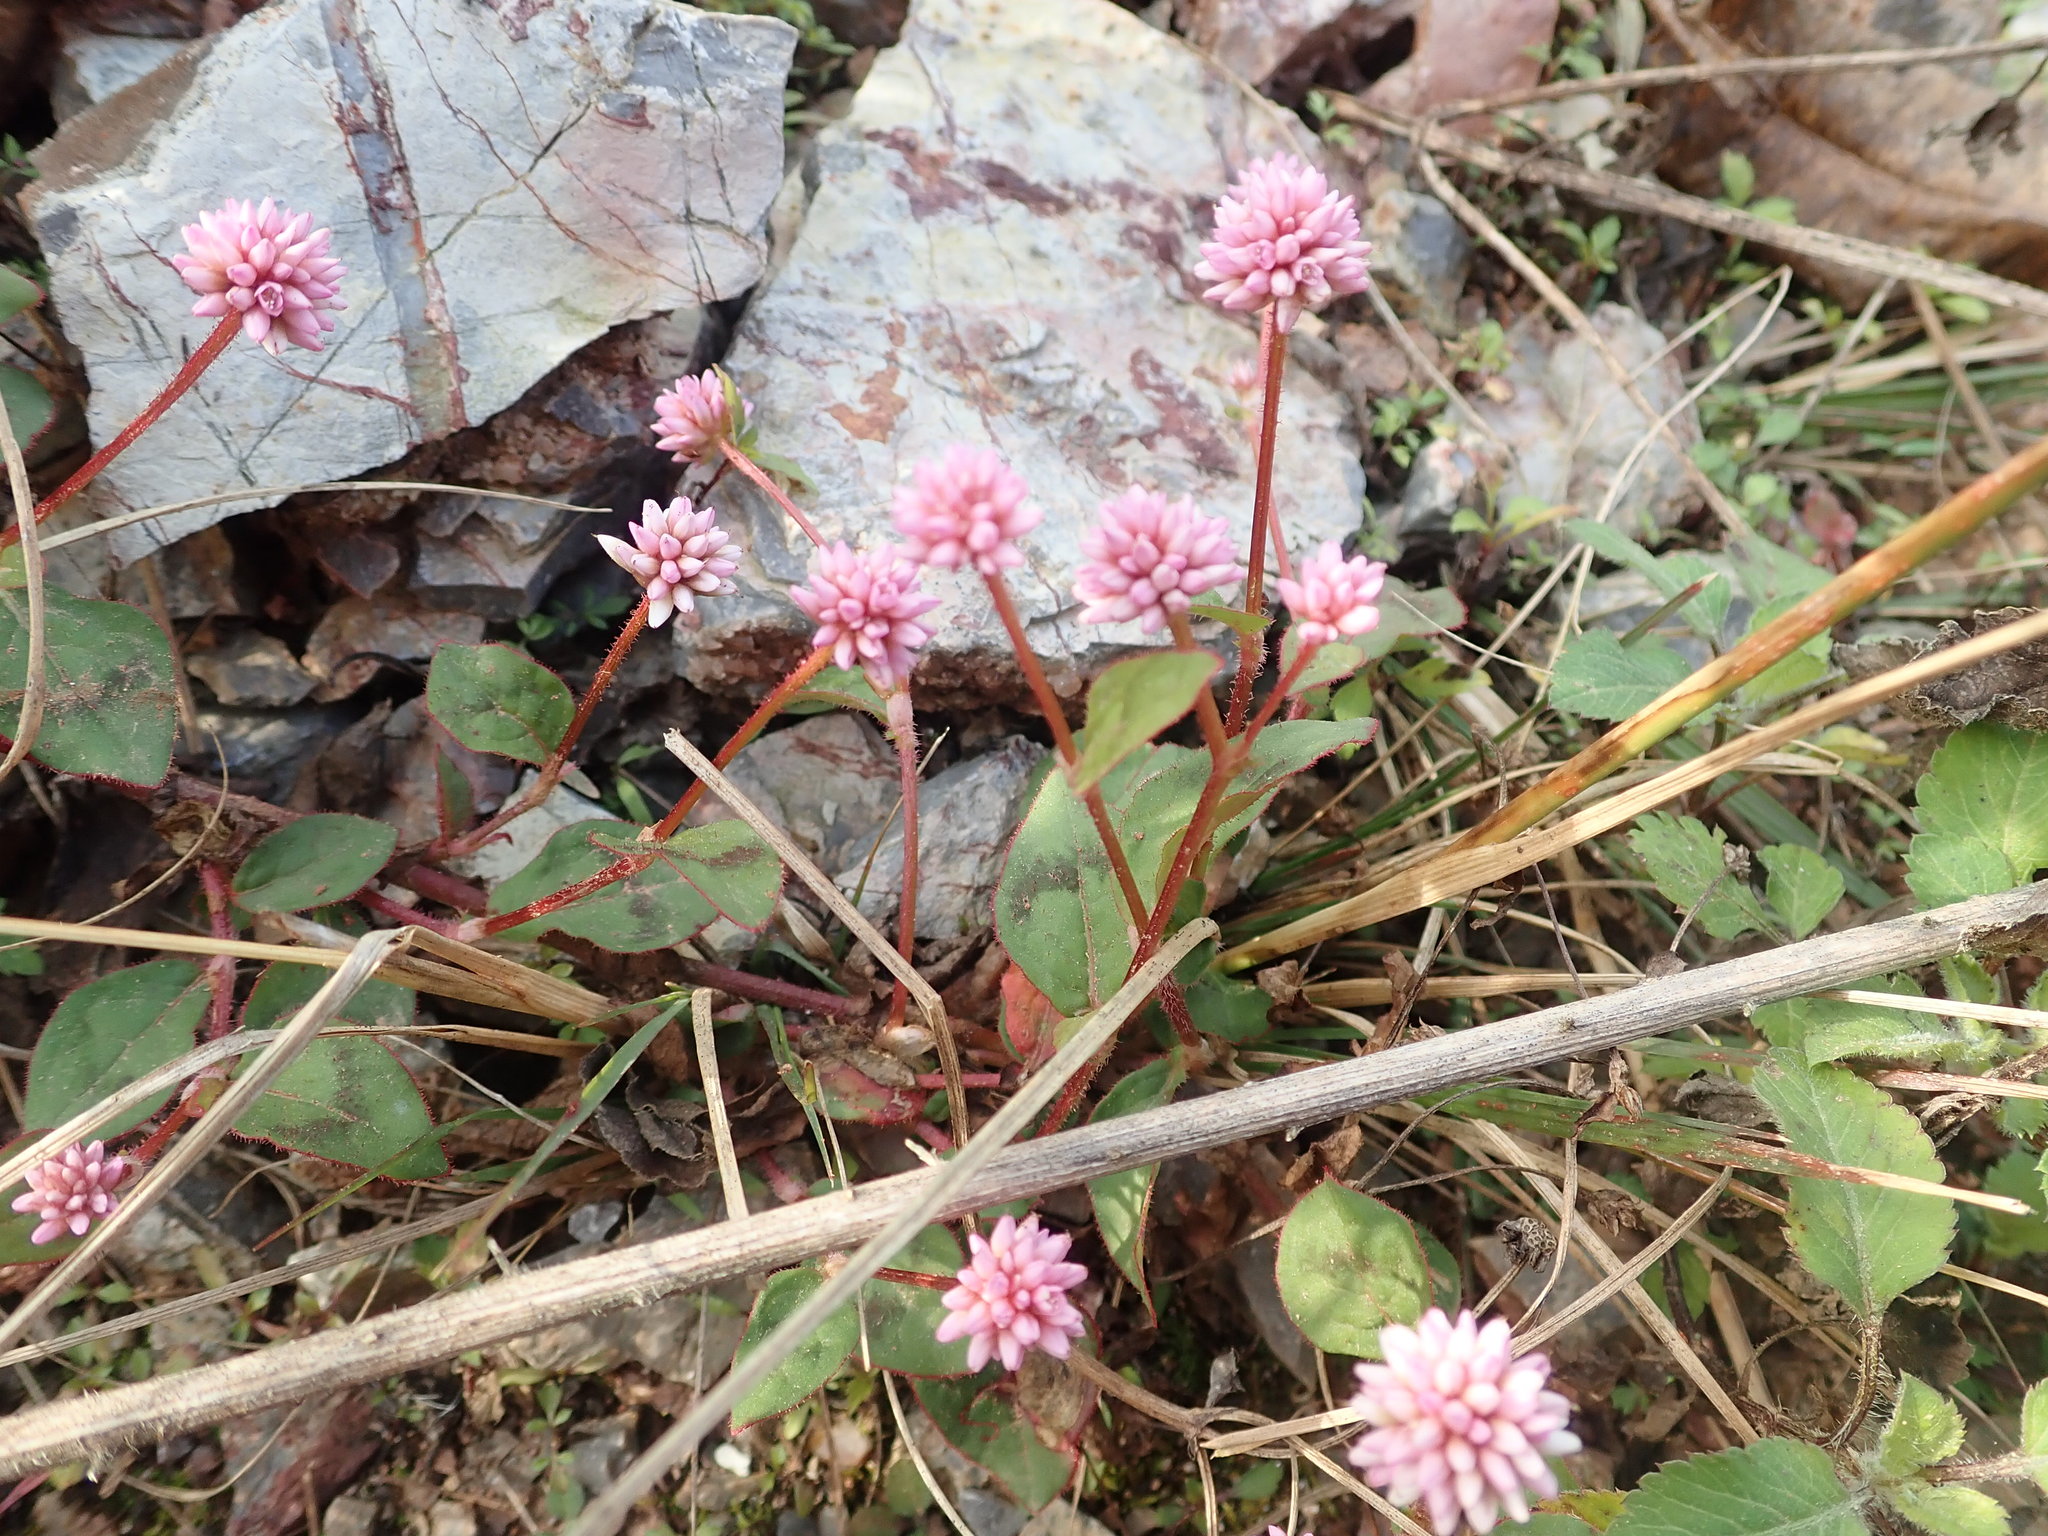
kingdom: Plantae
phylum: Tracheophyta
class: Magnoliopsida
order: Caryophyllales
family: Polygonaceae
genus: Persicaria
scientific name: Persicaria capitata
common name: Pinkhead smartweed
